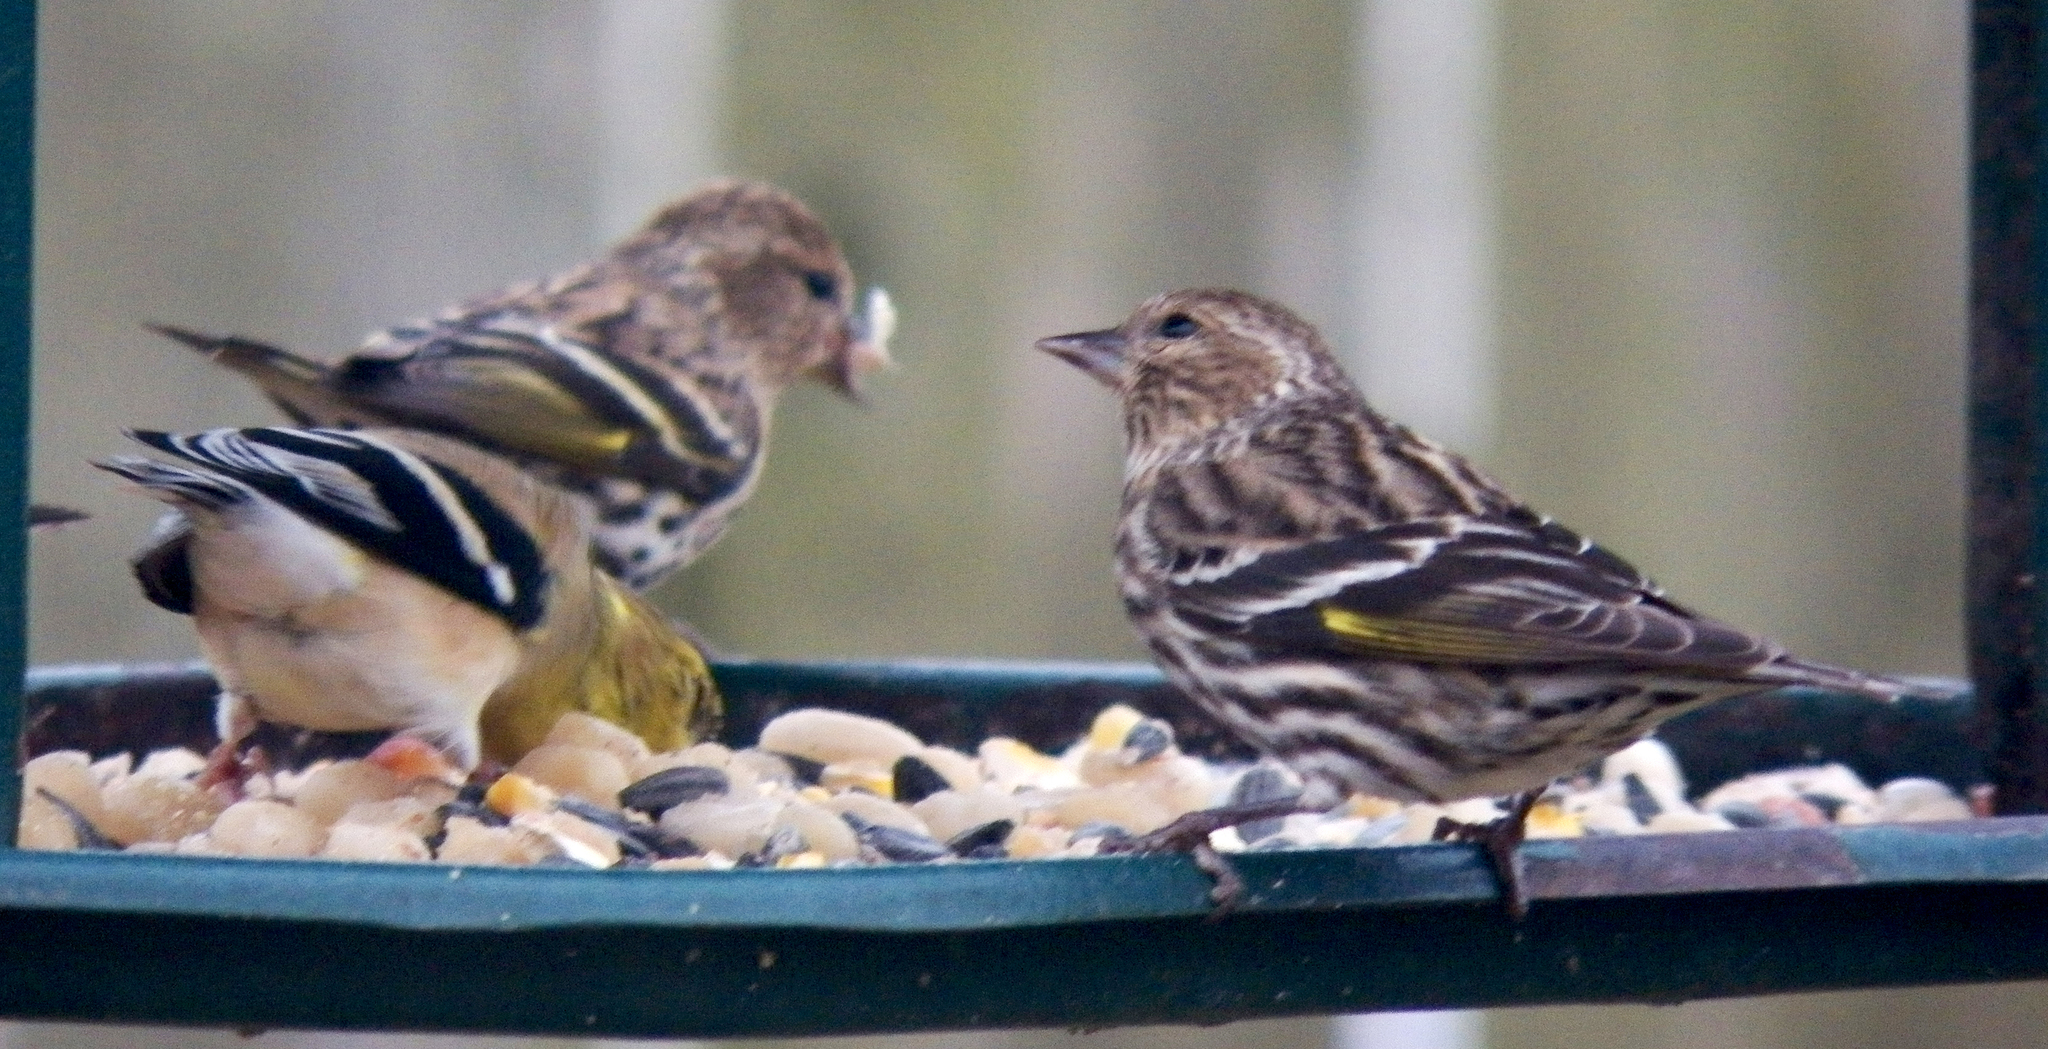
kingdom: Animalia
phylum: Chordata
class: Aves
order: Passeriformes
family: Fringillidae
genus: Spinus
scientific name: Spinus pinus
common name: Pine siskin
